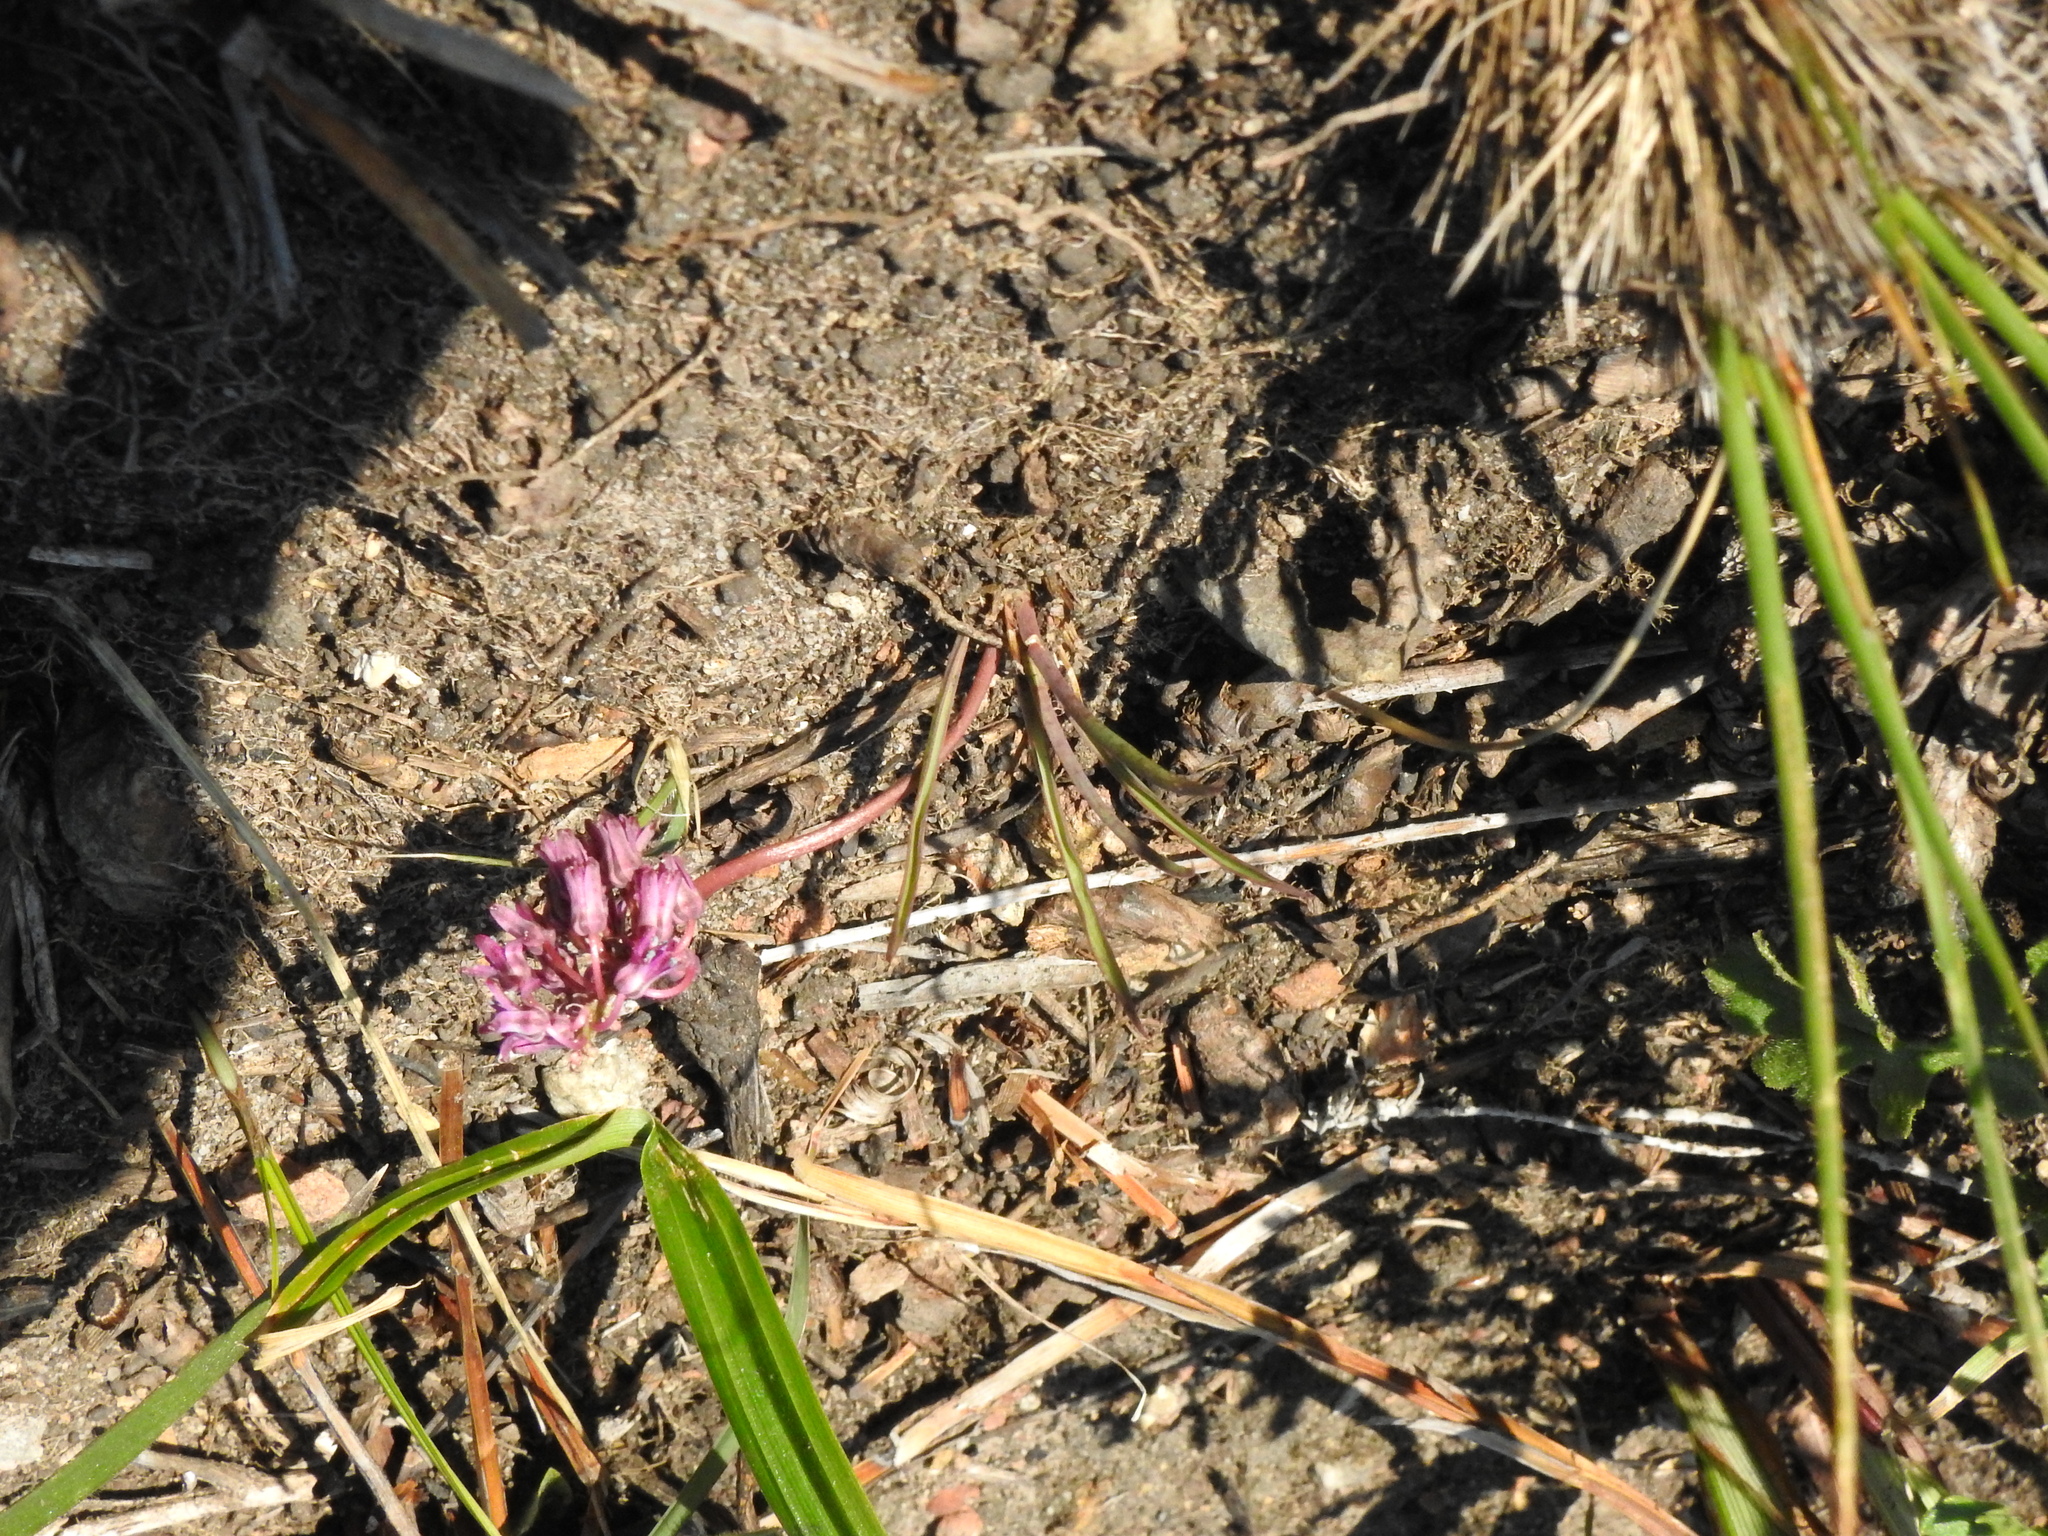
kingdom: Plantae
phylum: Tracheophyta
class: Liliopsida
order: Asparagales
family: Asparagaceae
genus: Ledebouria
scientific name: Ledebouria leptophylla
